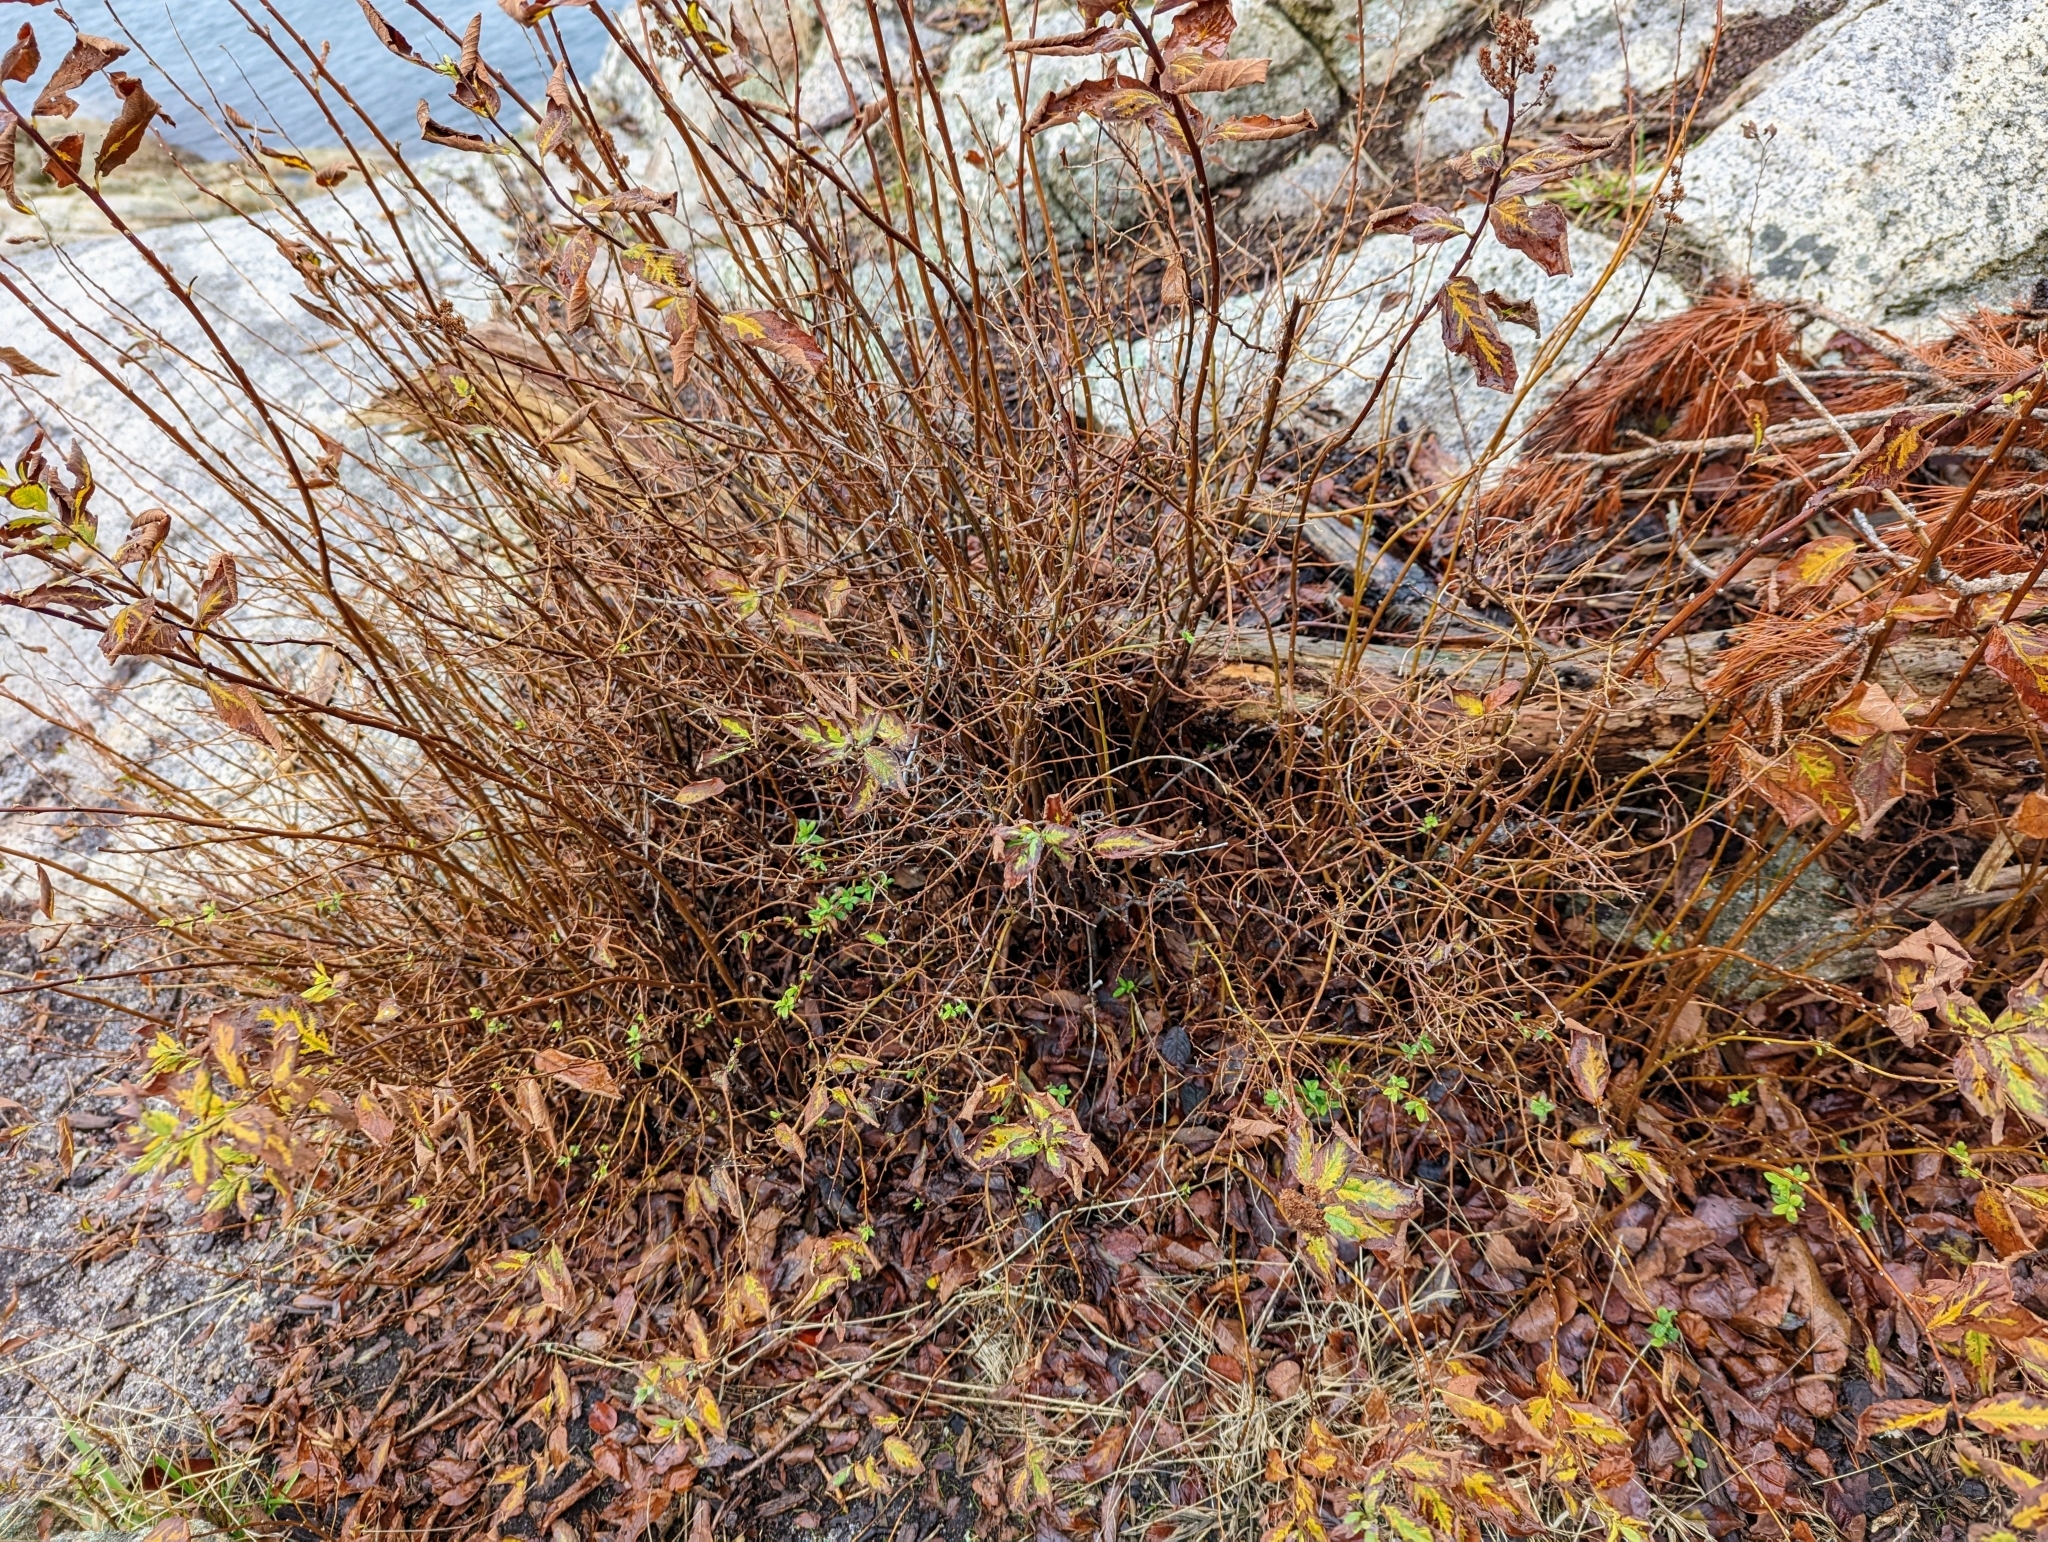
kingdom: Plantae
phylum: Tracheophyta
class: Magnoliopsida
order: Rosales
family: Rosaceae
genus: Spiraea
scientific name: Spiraea douglasii
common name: Steeplebush
